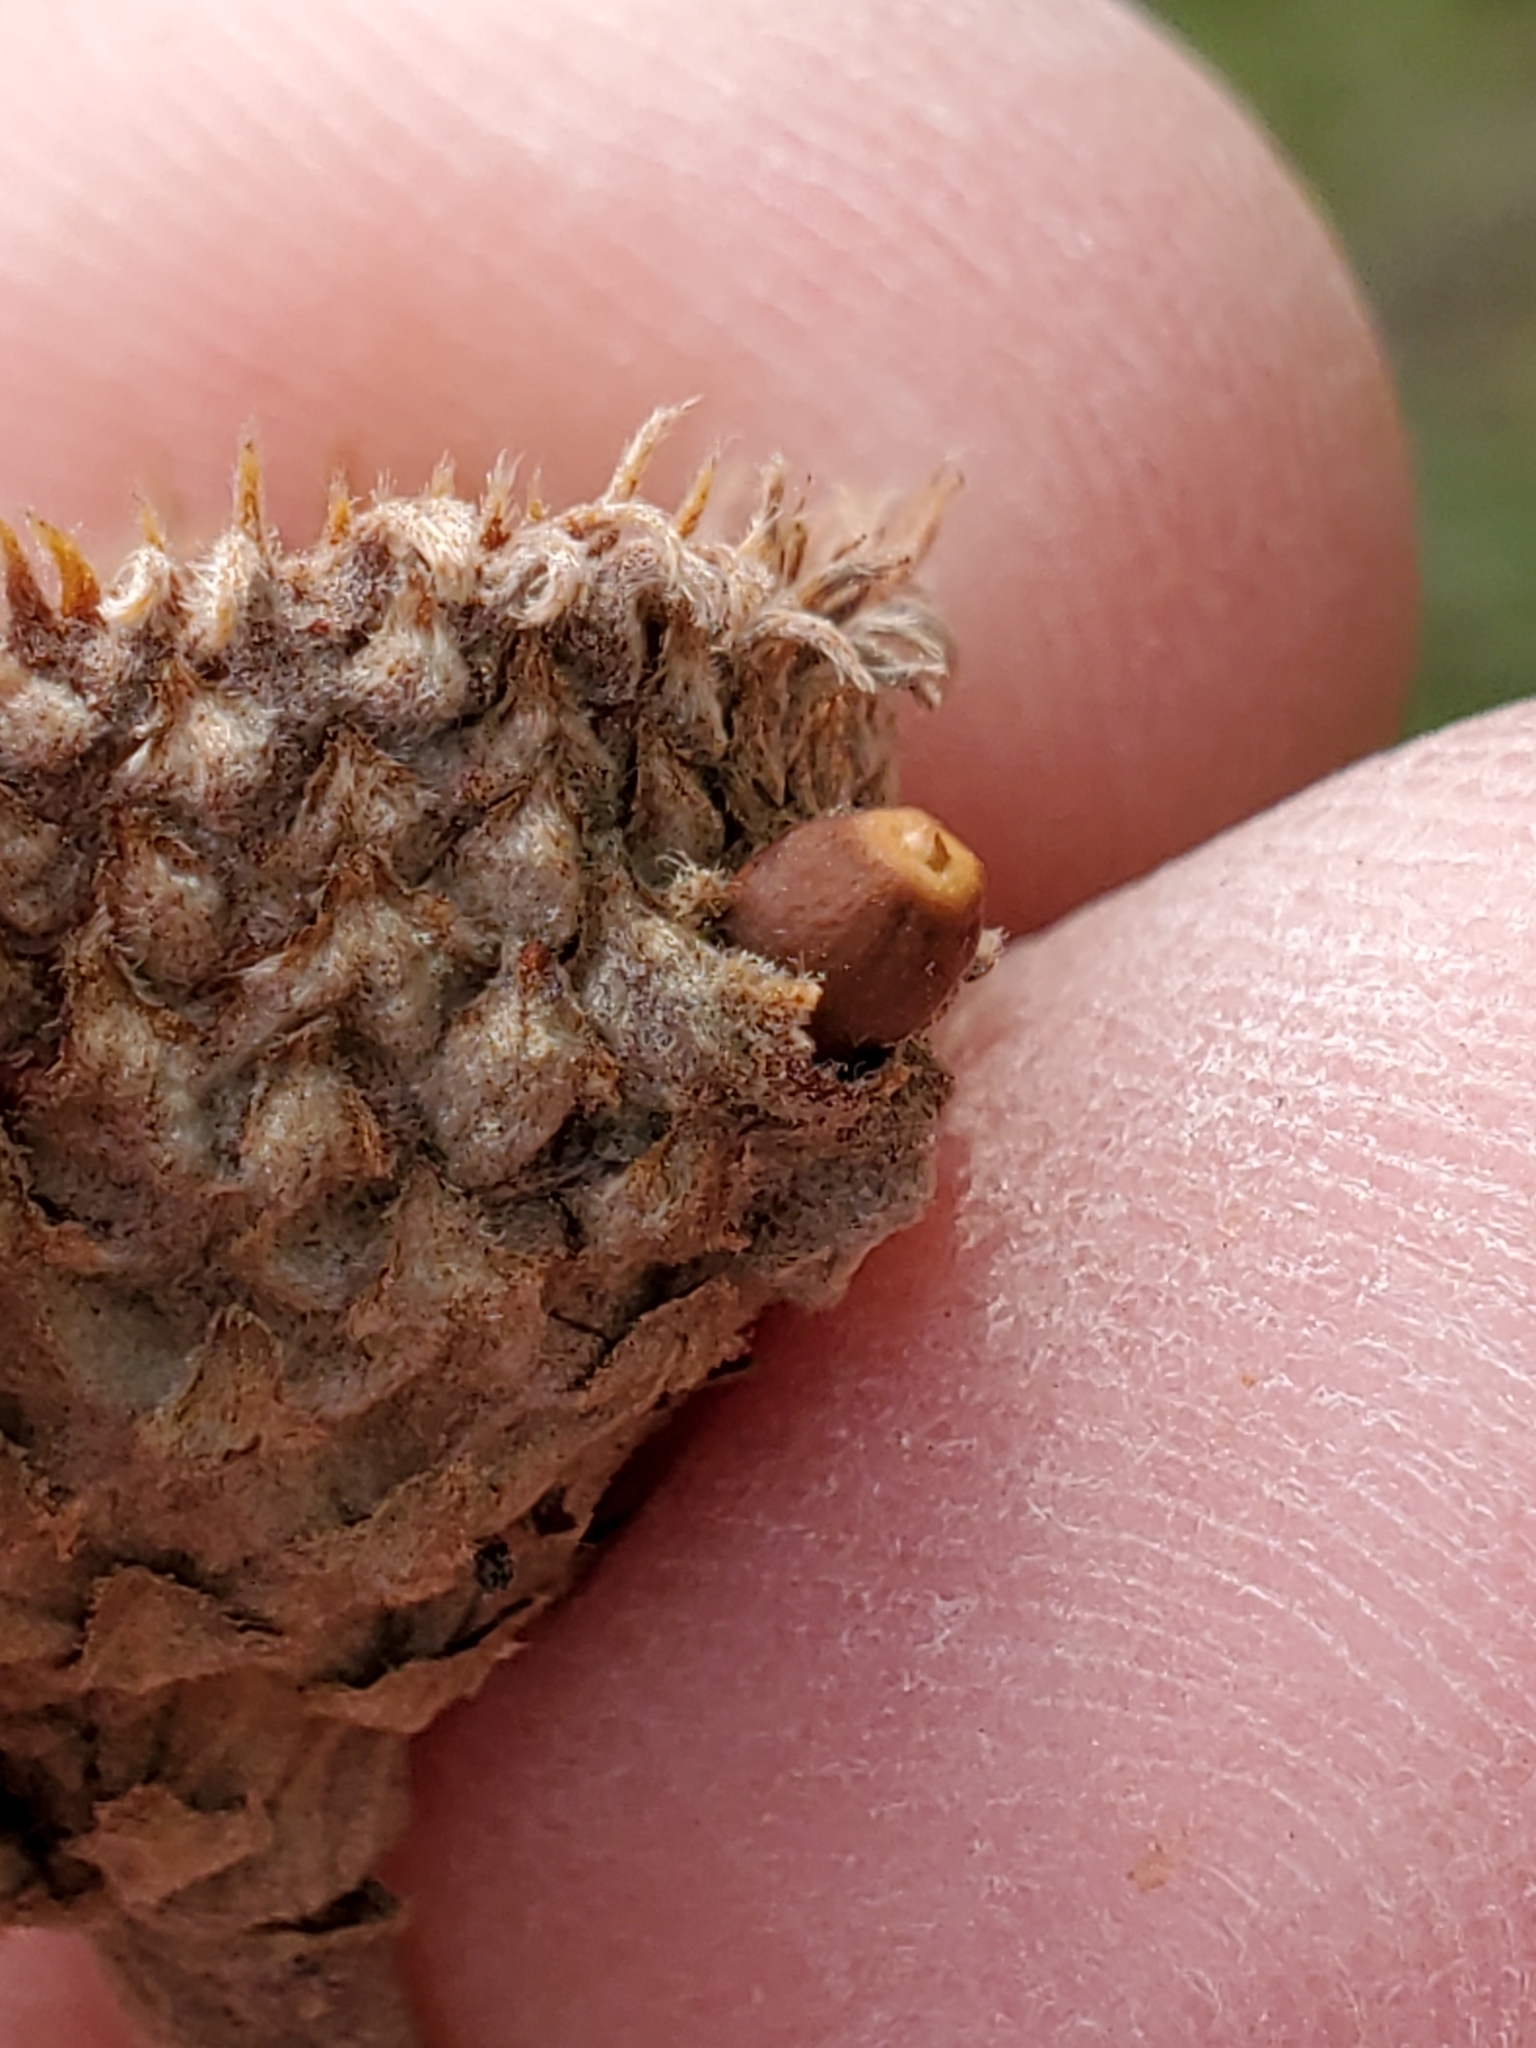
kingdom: Animalia
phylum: Arthropoda
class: Insecta
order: Hymenoptera
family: Cynipidae
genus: Andricus
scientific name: Andricus
